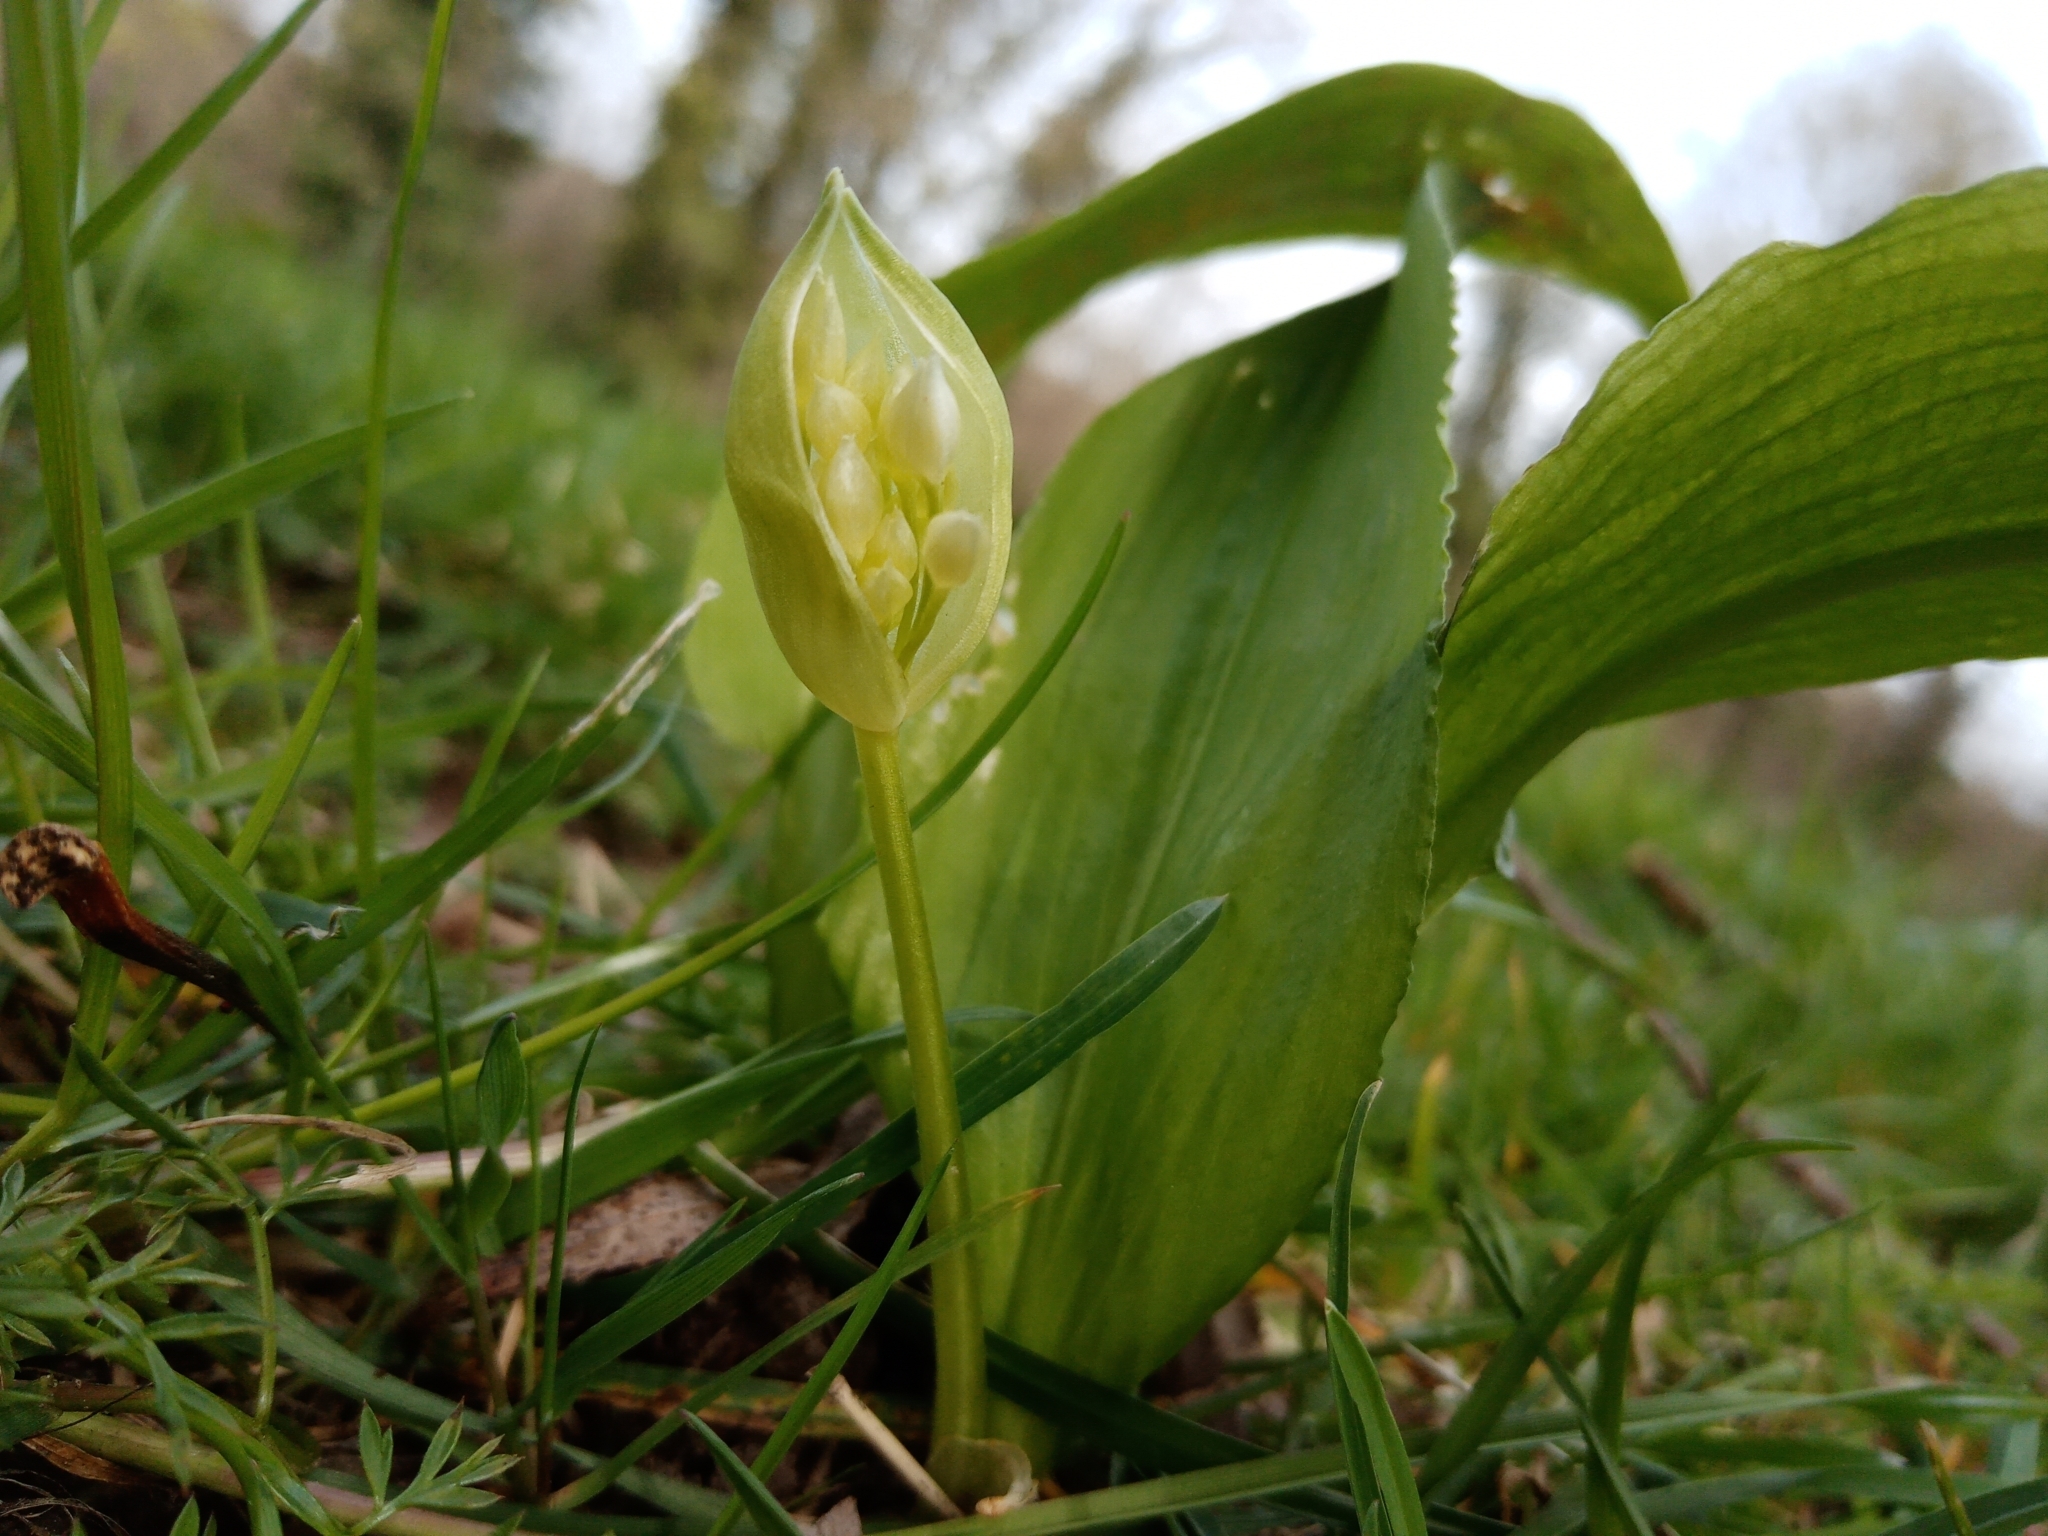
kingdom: Plantae
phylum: Tracheophyta
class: Liliopsida
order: Asparagales
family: Amaryllidaceae
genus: Allium
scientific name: Allium ursinum
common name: Ramsons
